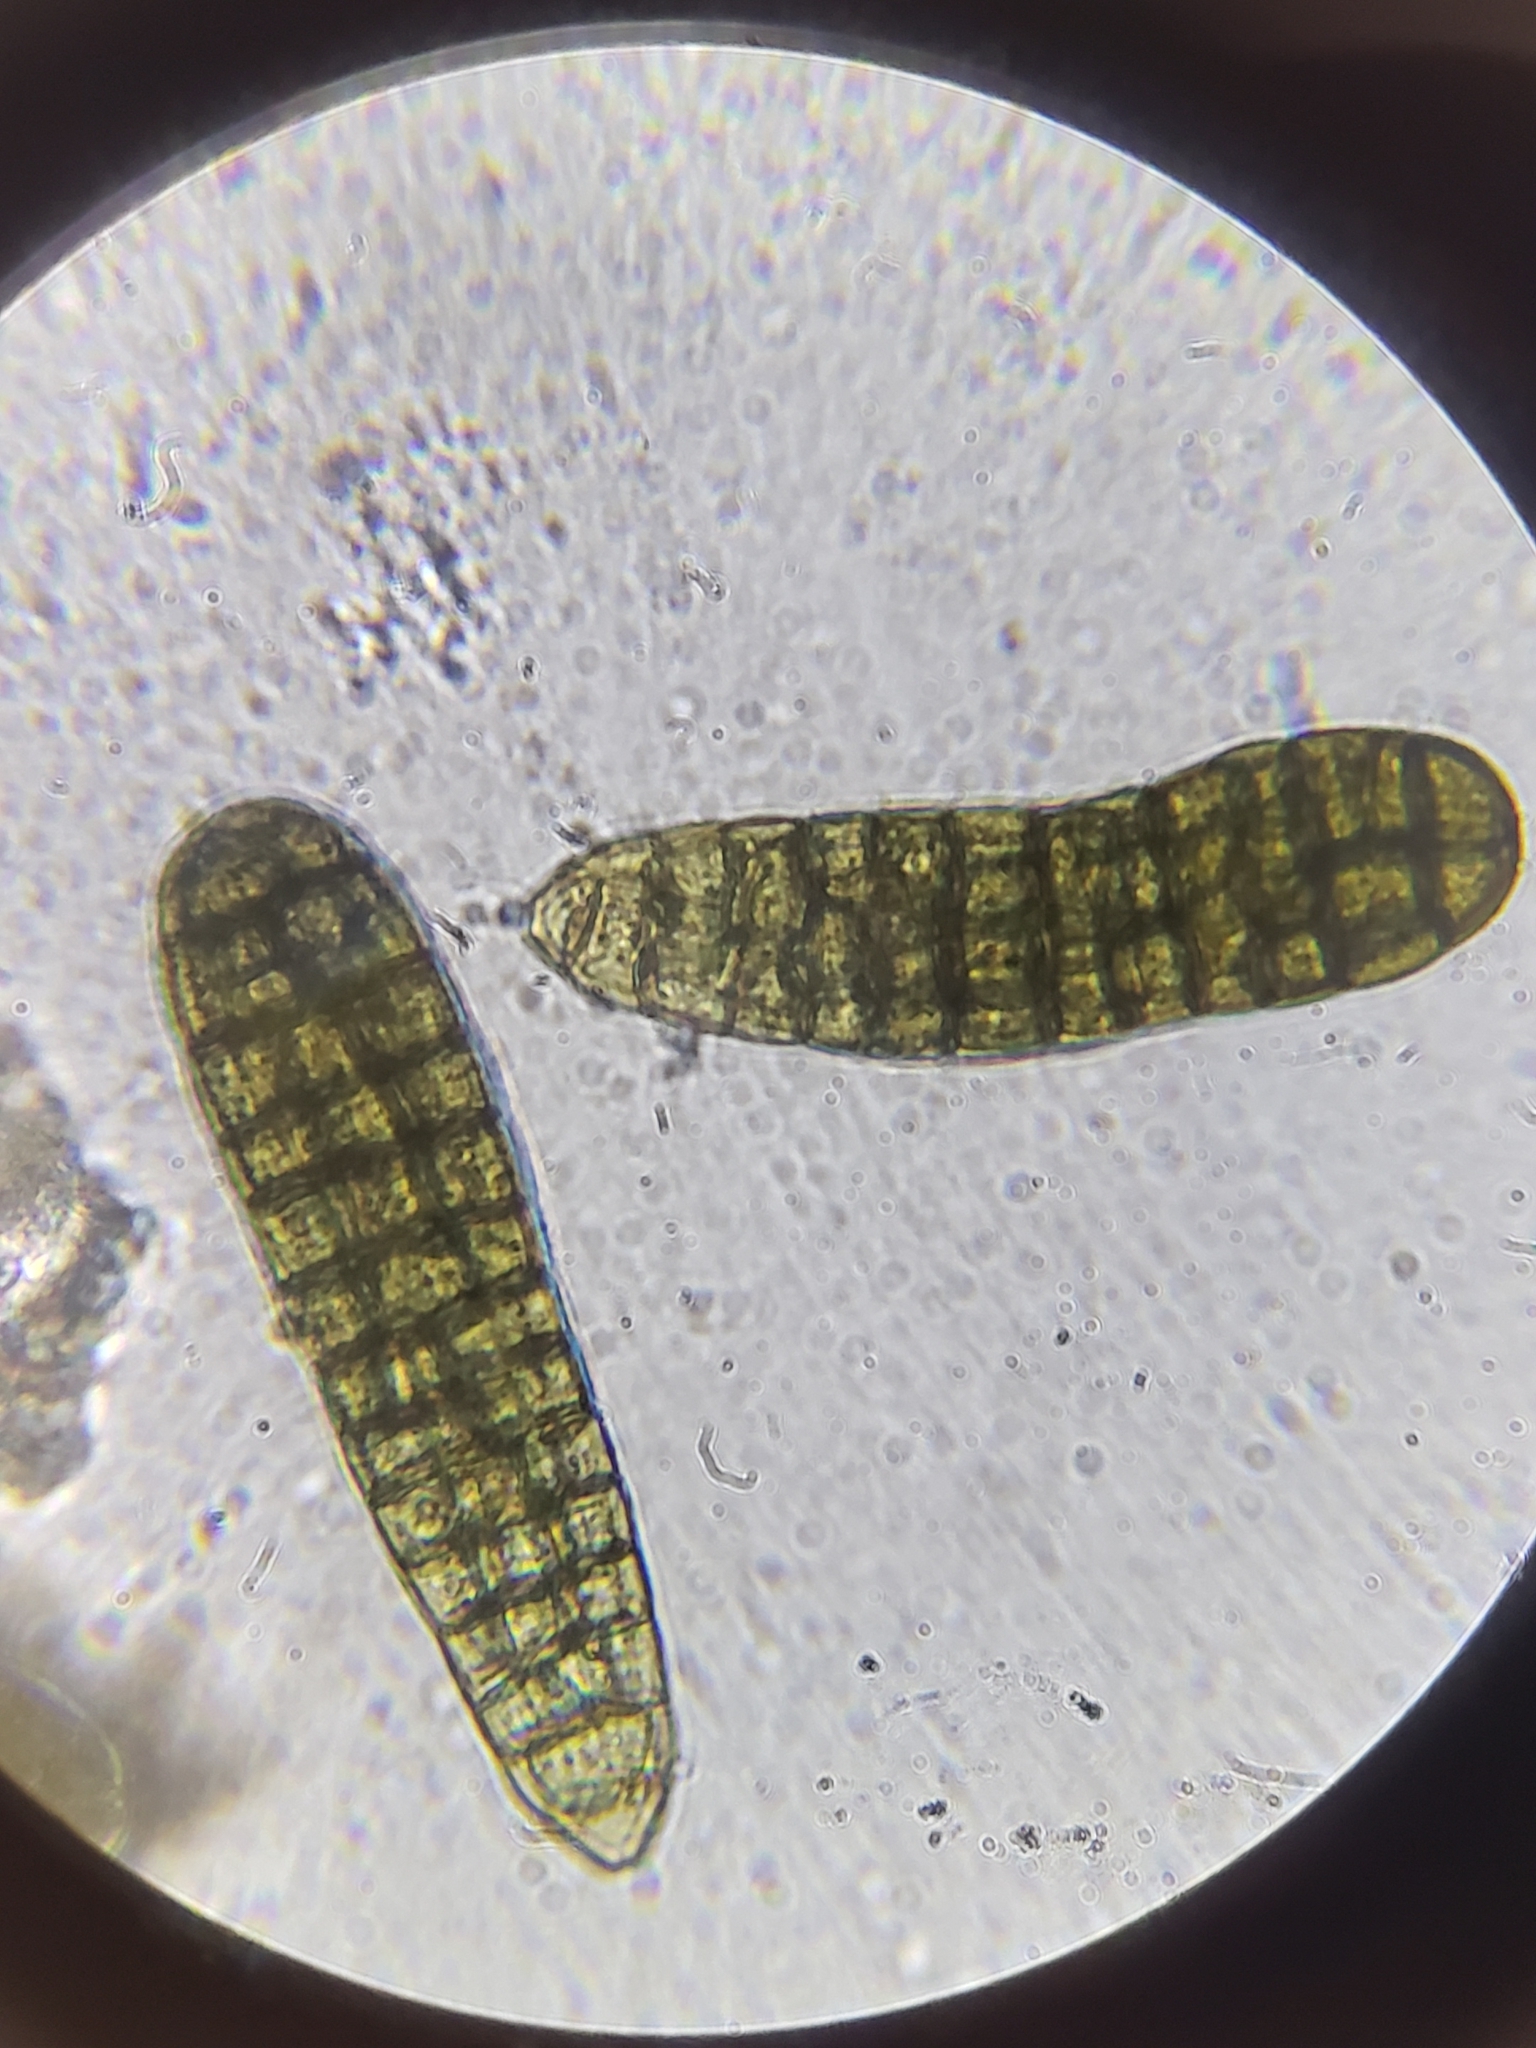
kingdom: Fungi
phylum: Ascomycota
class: Dothideomycetes
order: Pleosporales
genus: Berkleasmium
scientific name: Berkleasmium concinnum
